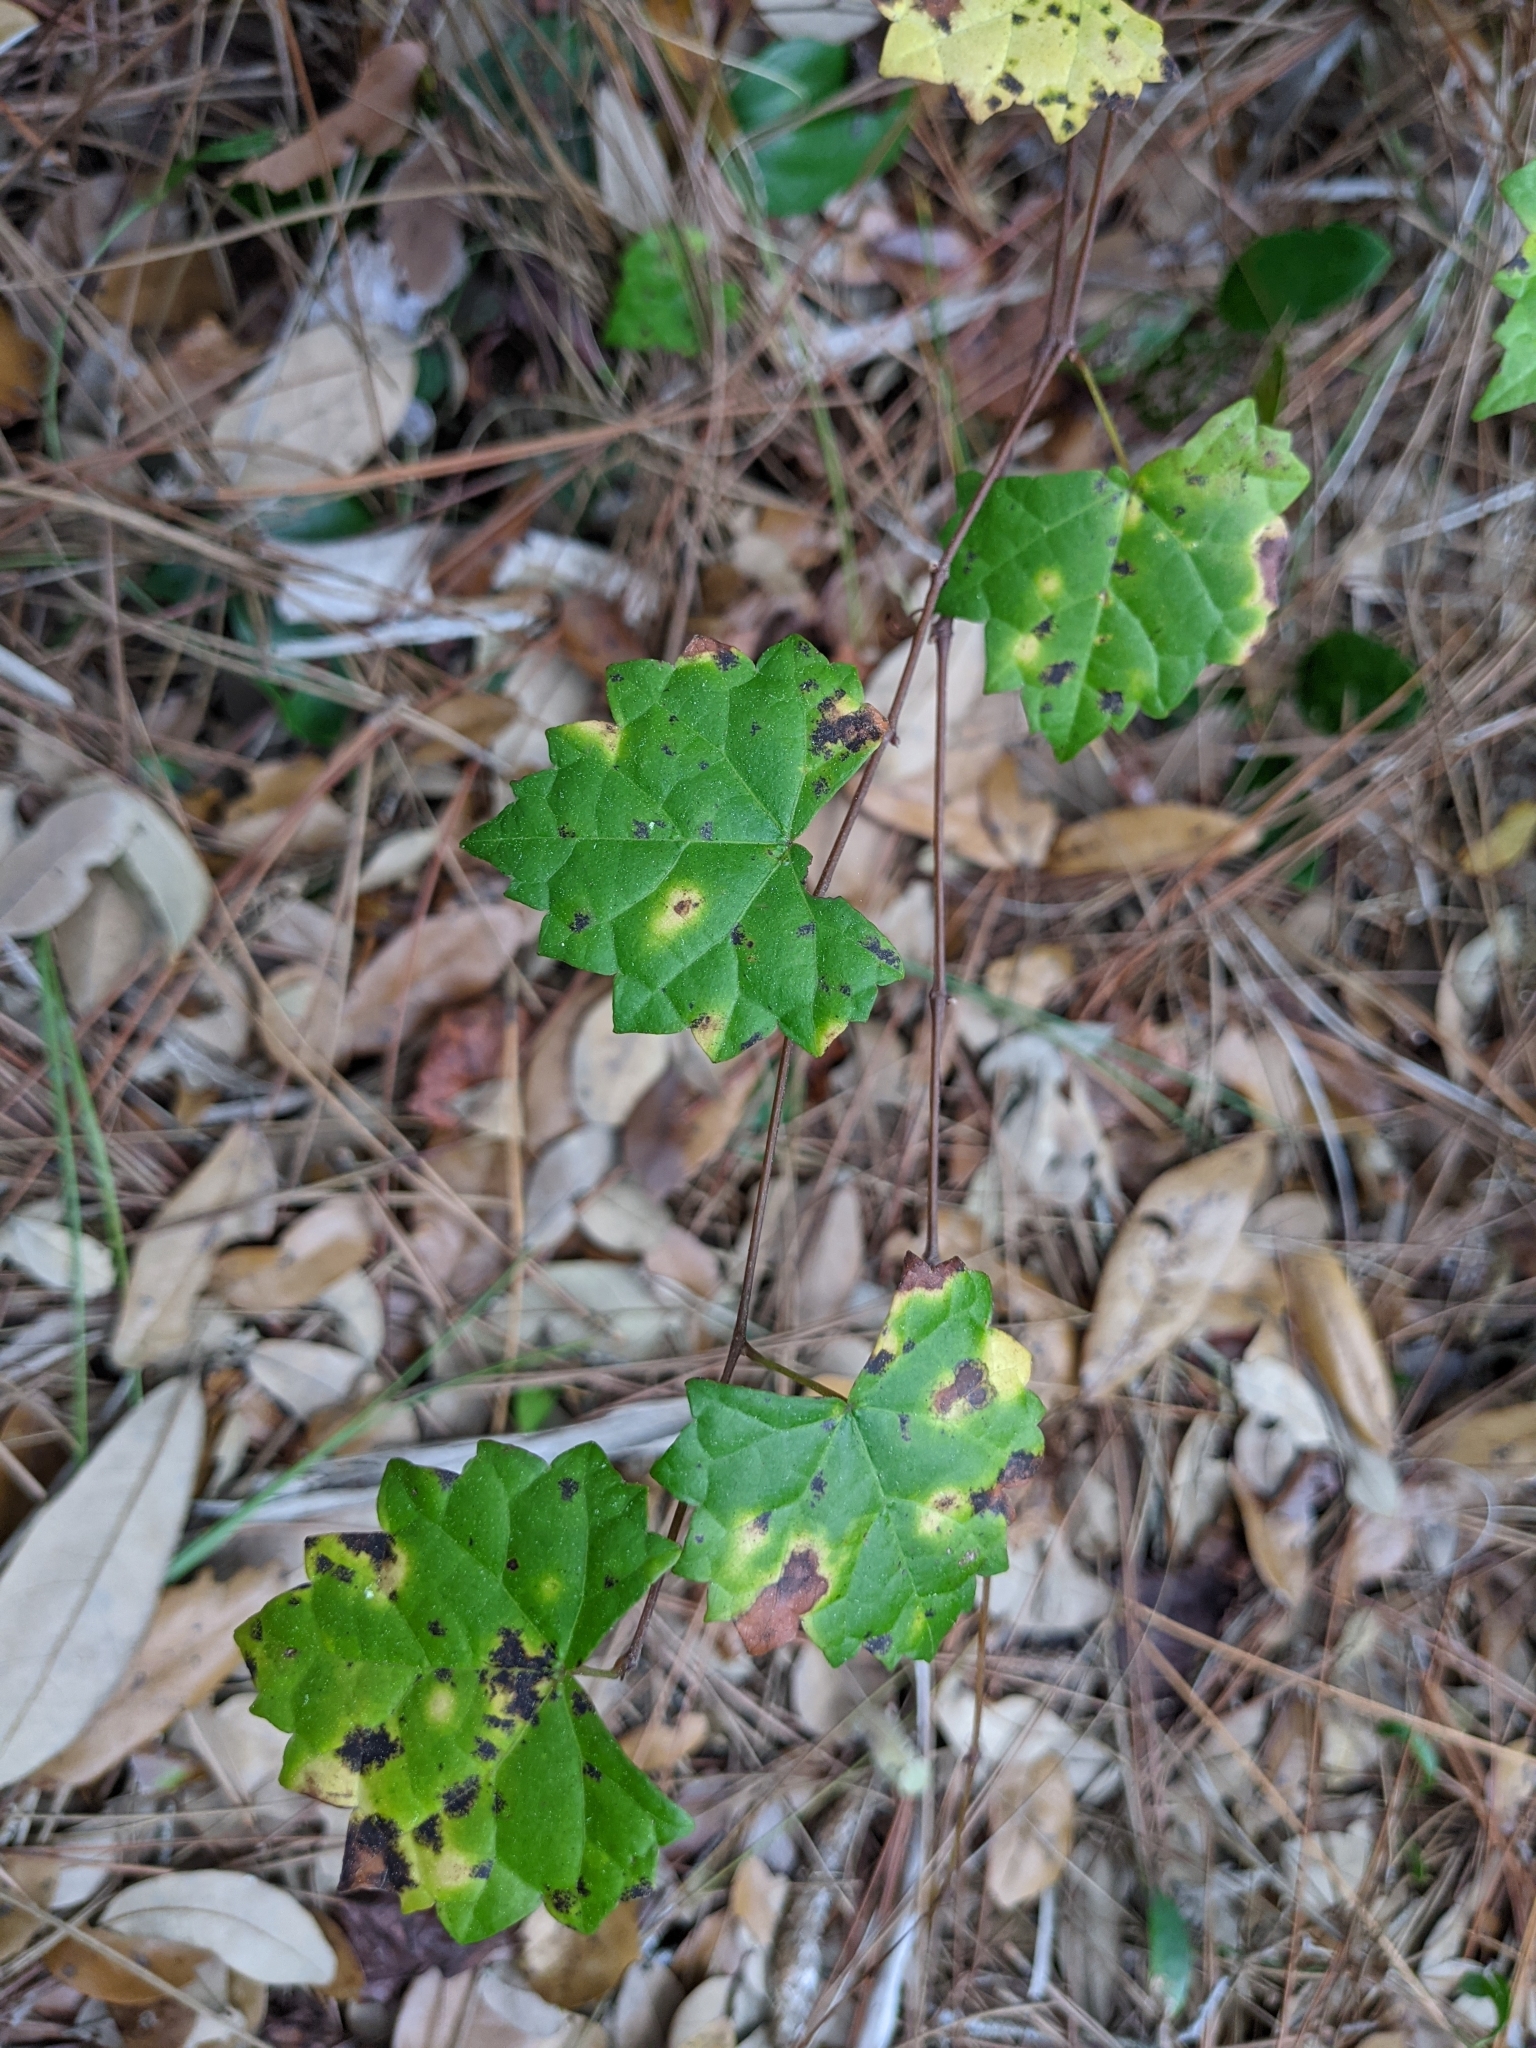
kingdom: Plantae
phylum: Tracheophyta
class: Magnoliopsida
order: Vitales
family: Vitaceae
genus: Vitis
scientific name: Vitis rotundifolia
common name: Muscadine grape
